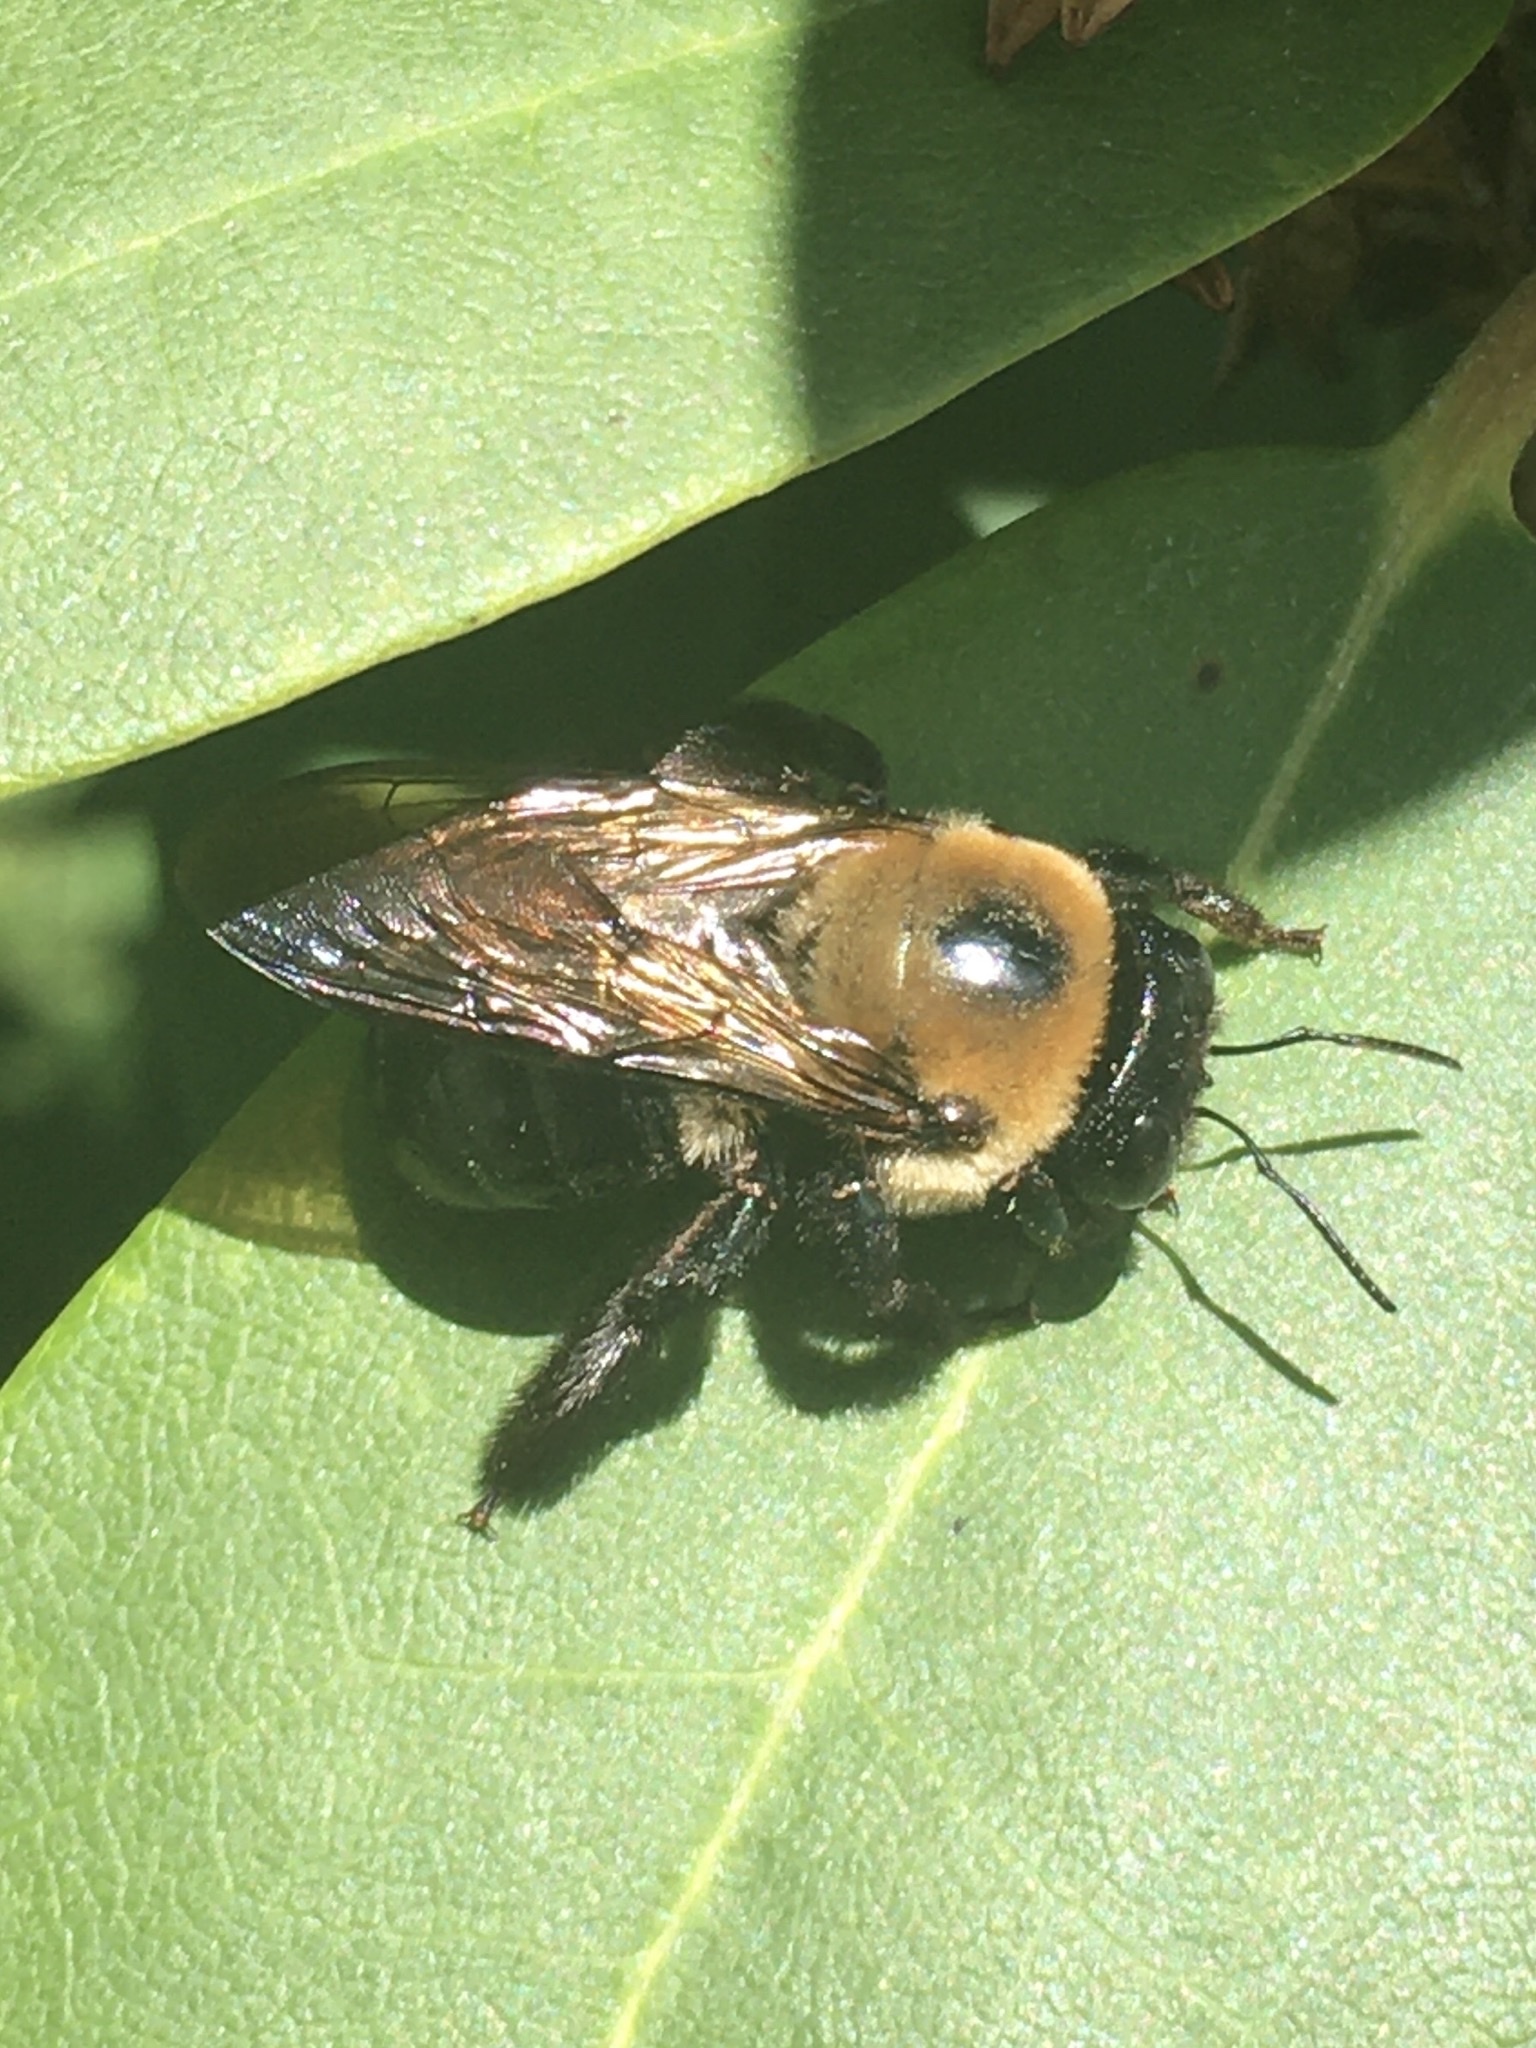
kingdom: Animalia
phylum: Arthropoda
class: Insecta
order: Hymenoptera
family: Apidae
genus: Xylocopa
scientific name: Xylocopa virginica
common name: Carpenter bee
